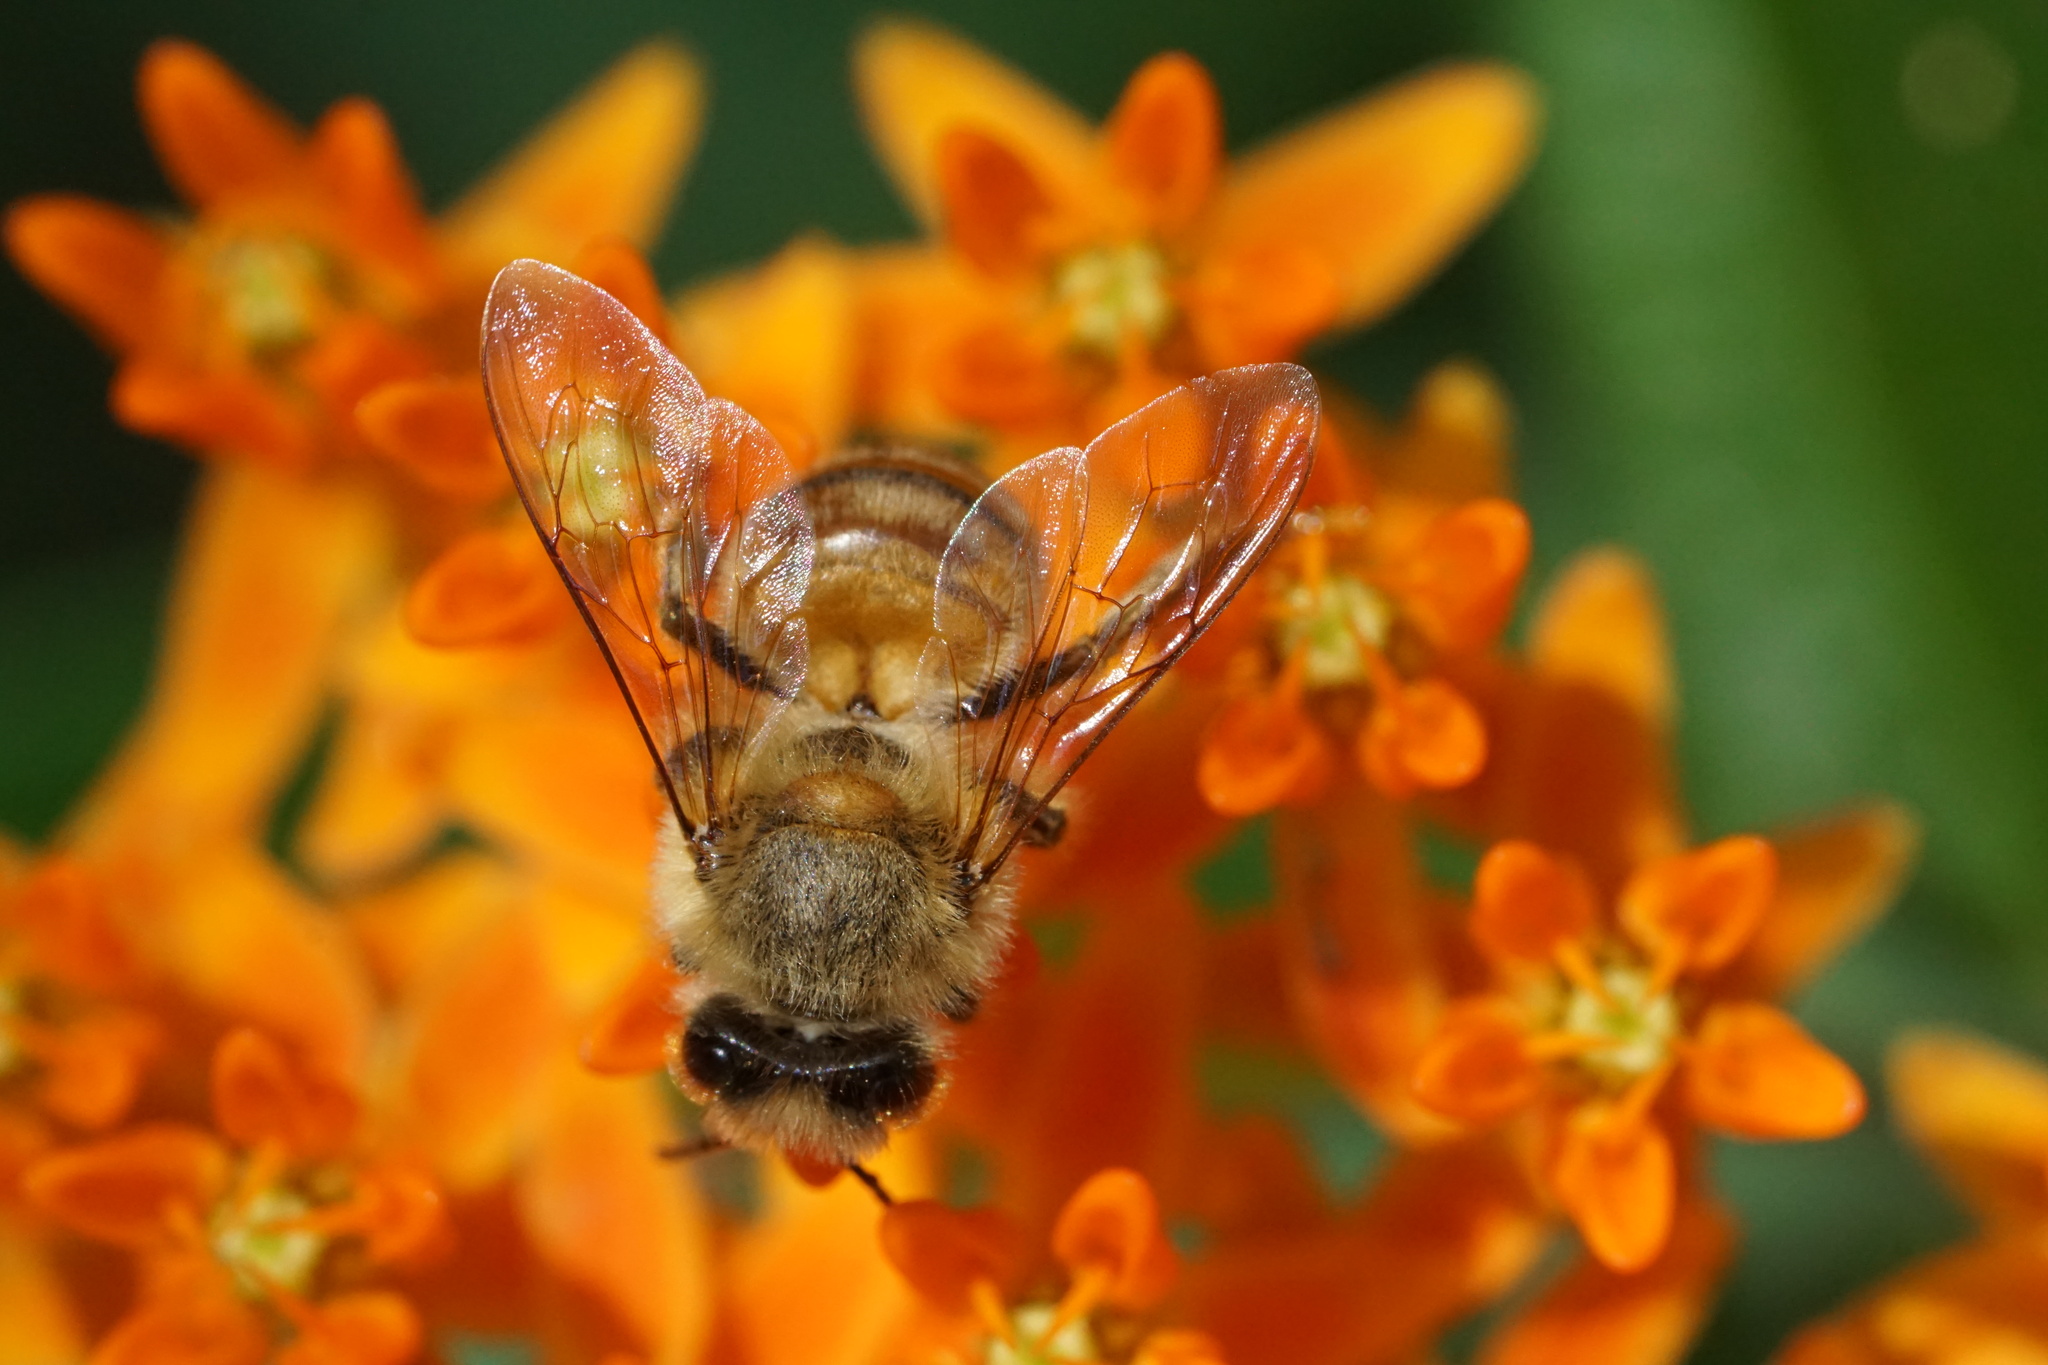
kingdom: Animalia
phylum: Arthropoda
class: Insecta
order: Hymenoptera
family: Apidae
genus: Apis
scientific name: Apis mellifera
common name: Honey bee
